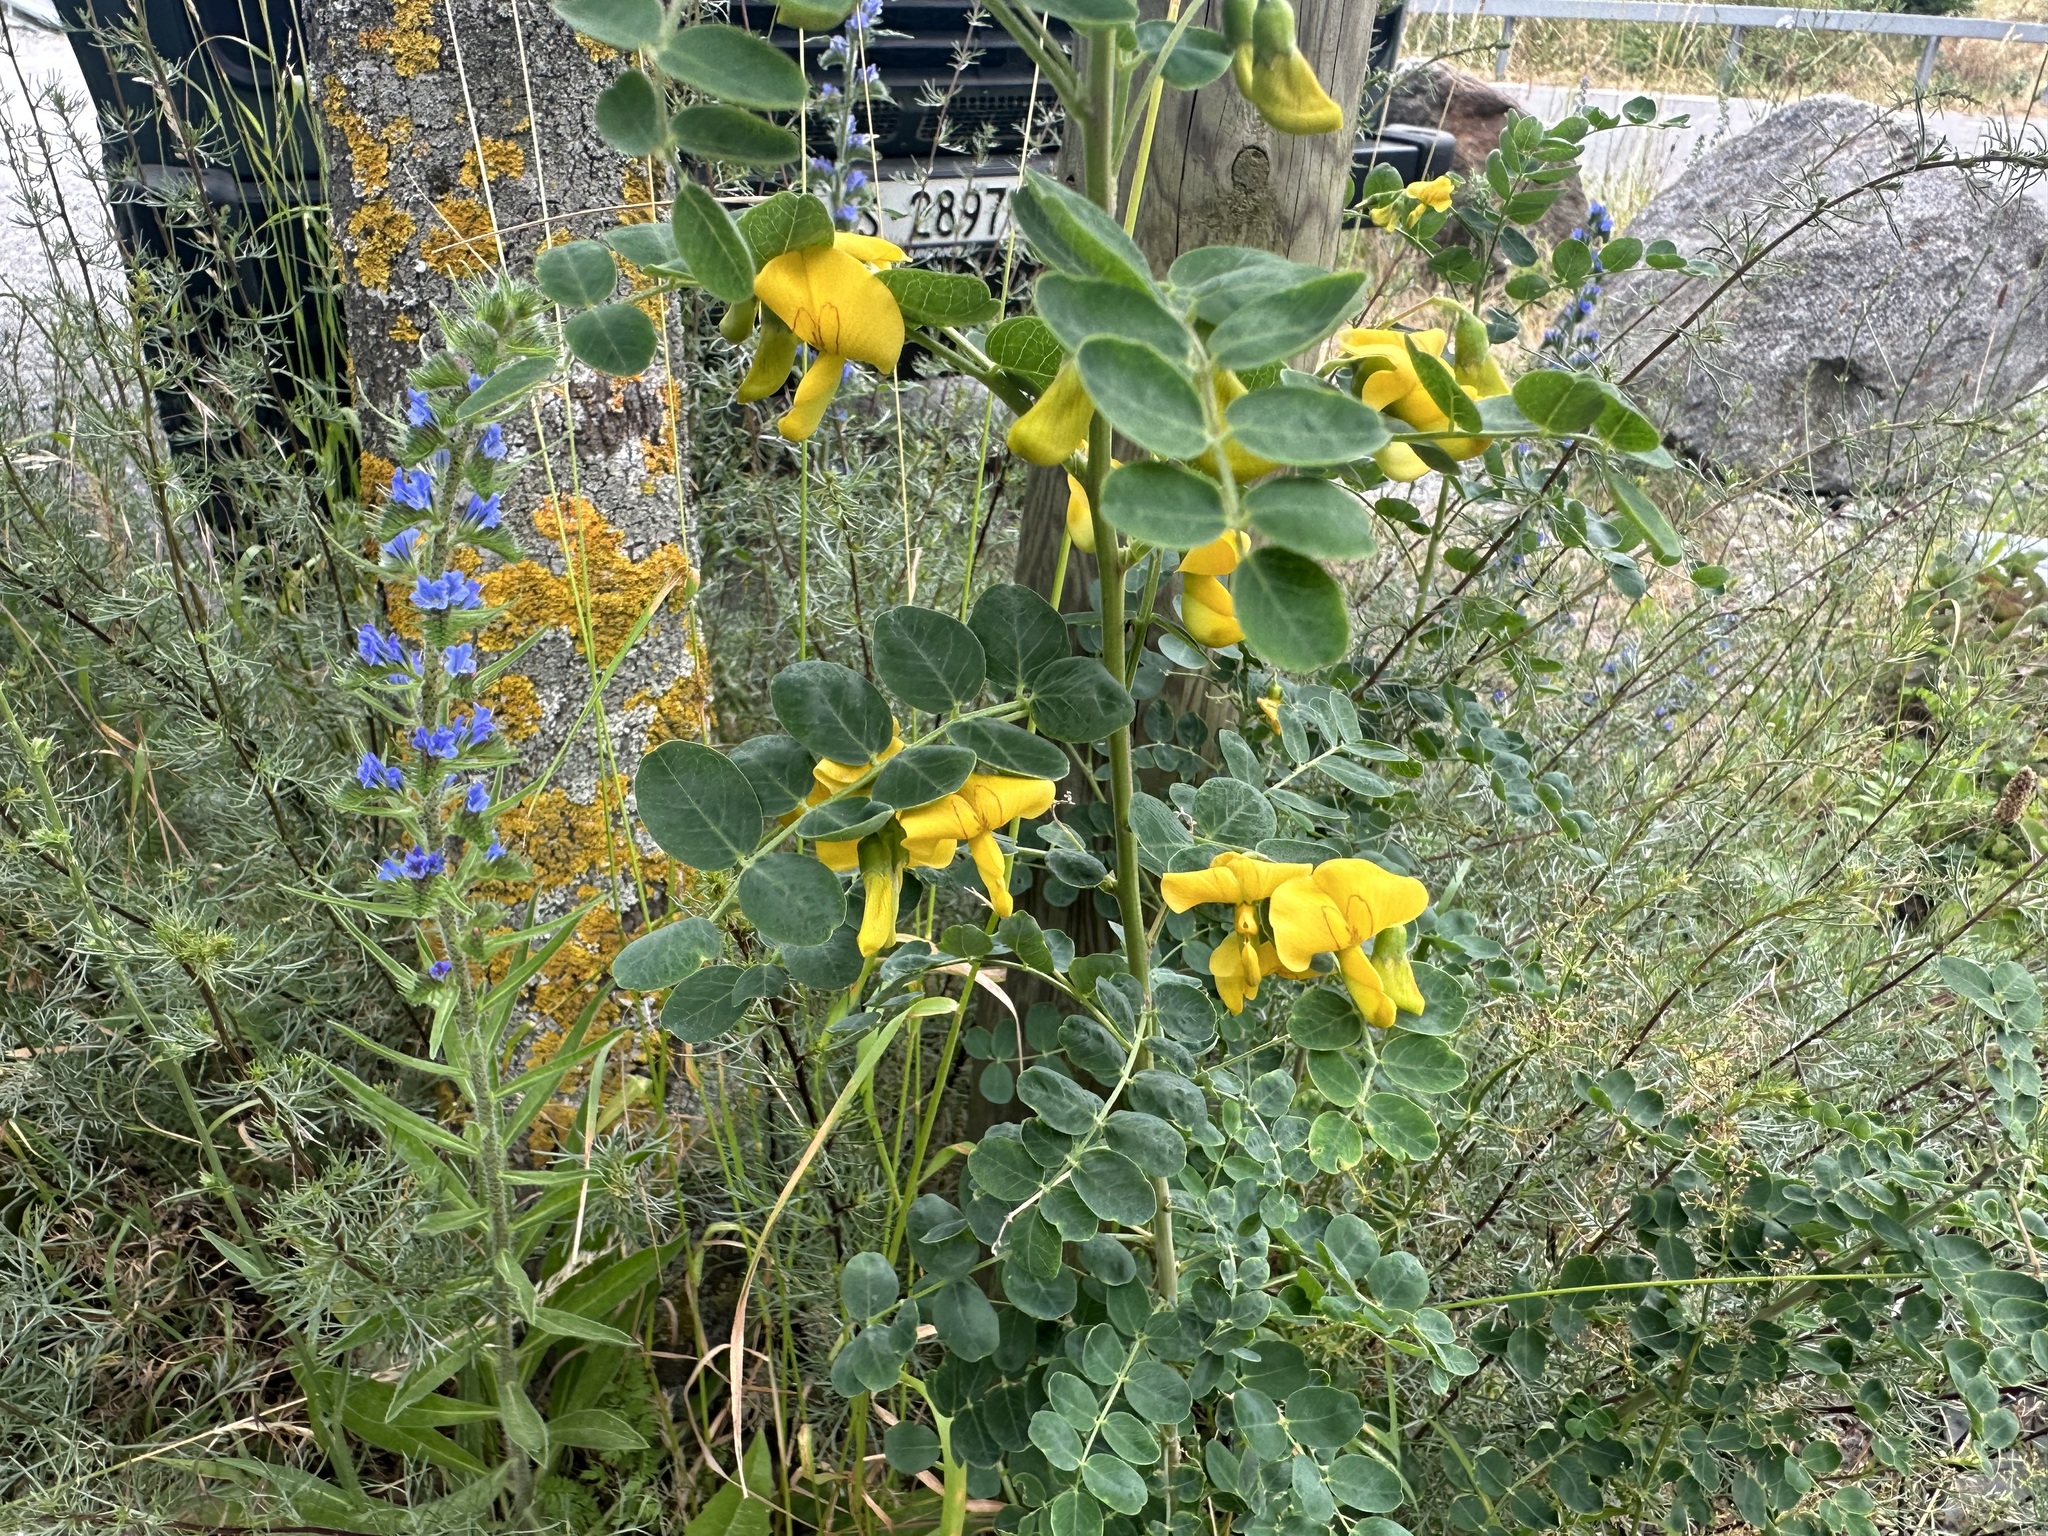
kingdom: Plantae
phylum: Tracheophyta
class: Magnoliopsida
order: Fabales
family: Fabaceae
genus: Colutea
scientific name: Colutea arborescens
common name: Bladder-senna
